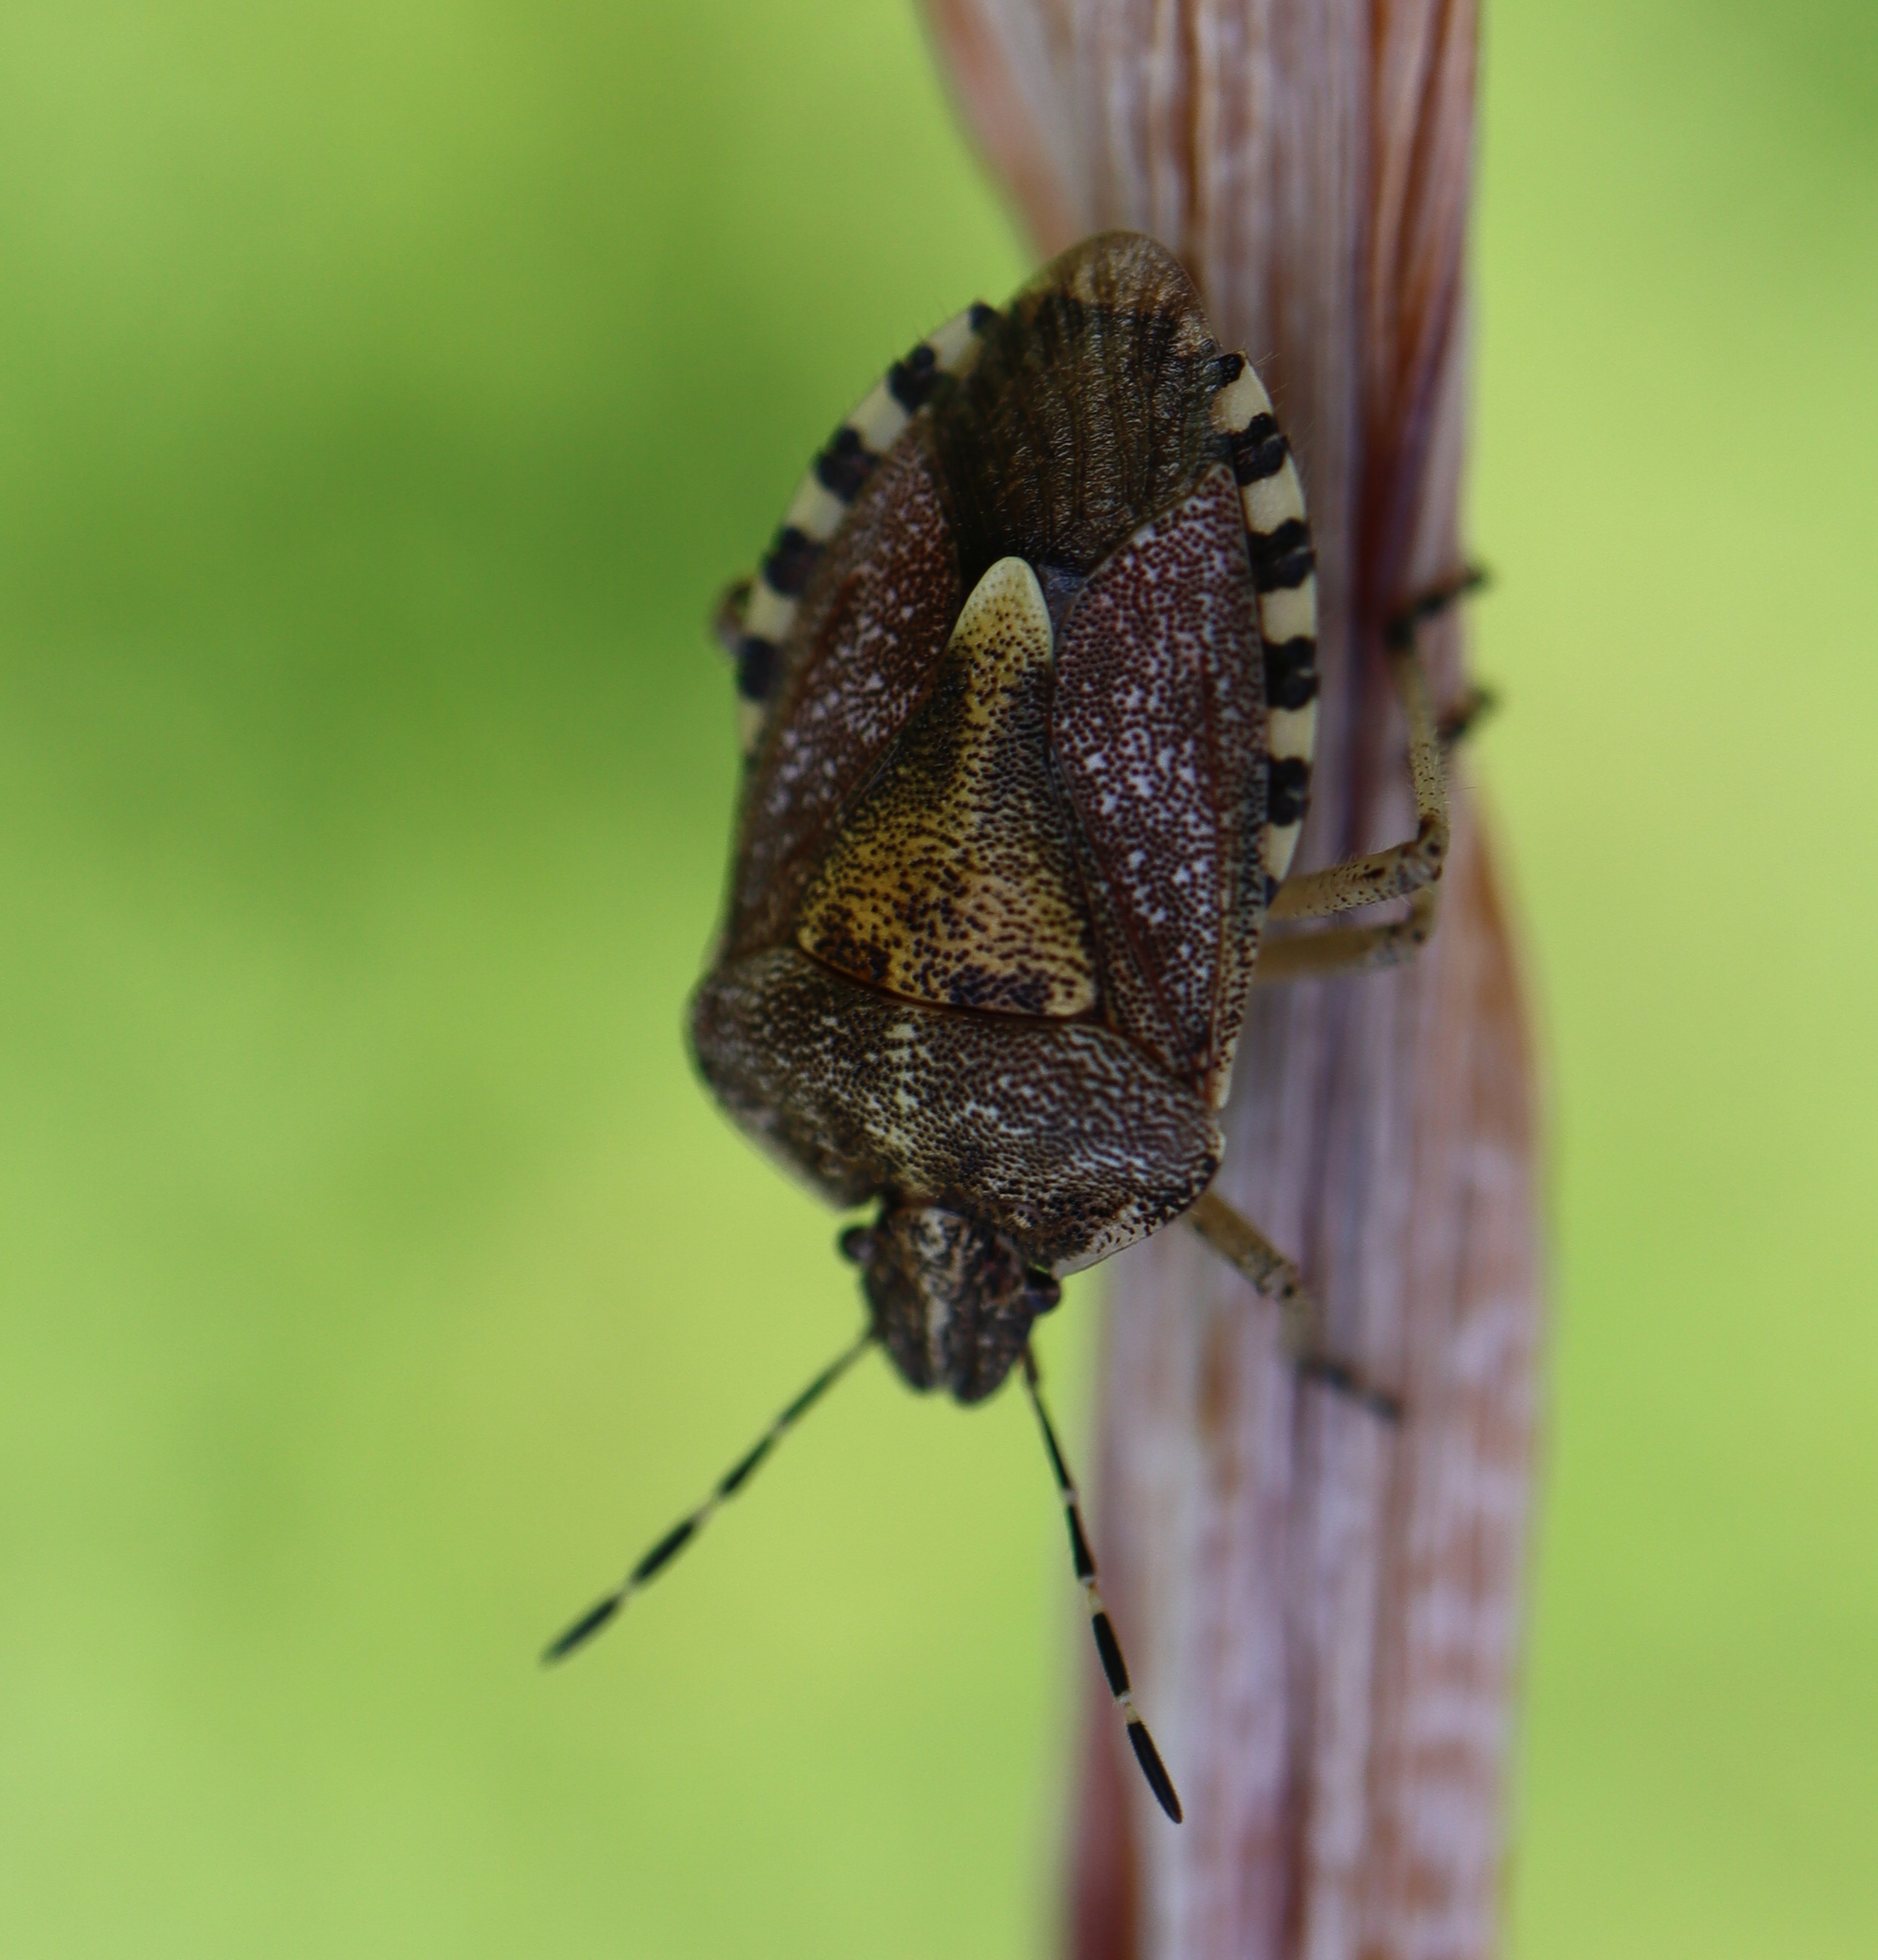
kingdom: Animalia
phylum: Arthropoda
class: Insecta
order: Hemiptera
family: Pentatomidae
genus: Dolycoris
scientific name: Dolycoris baccarum
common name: Sloe bug
